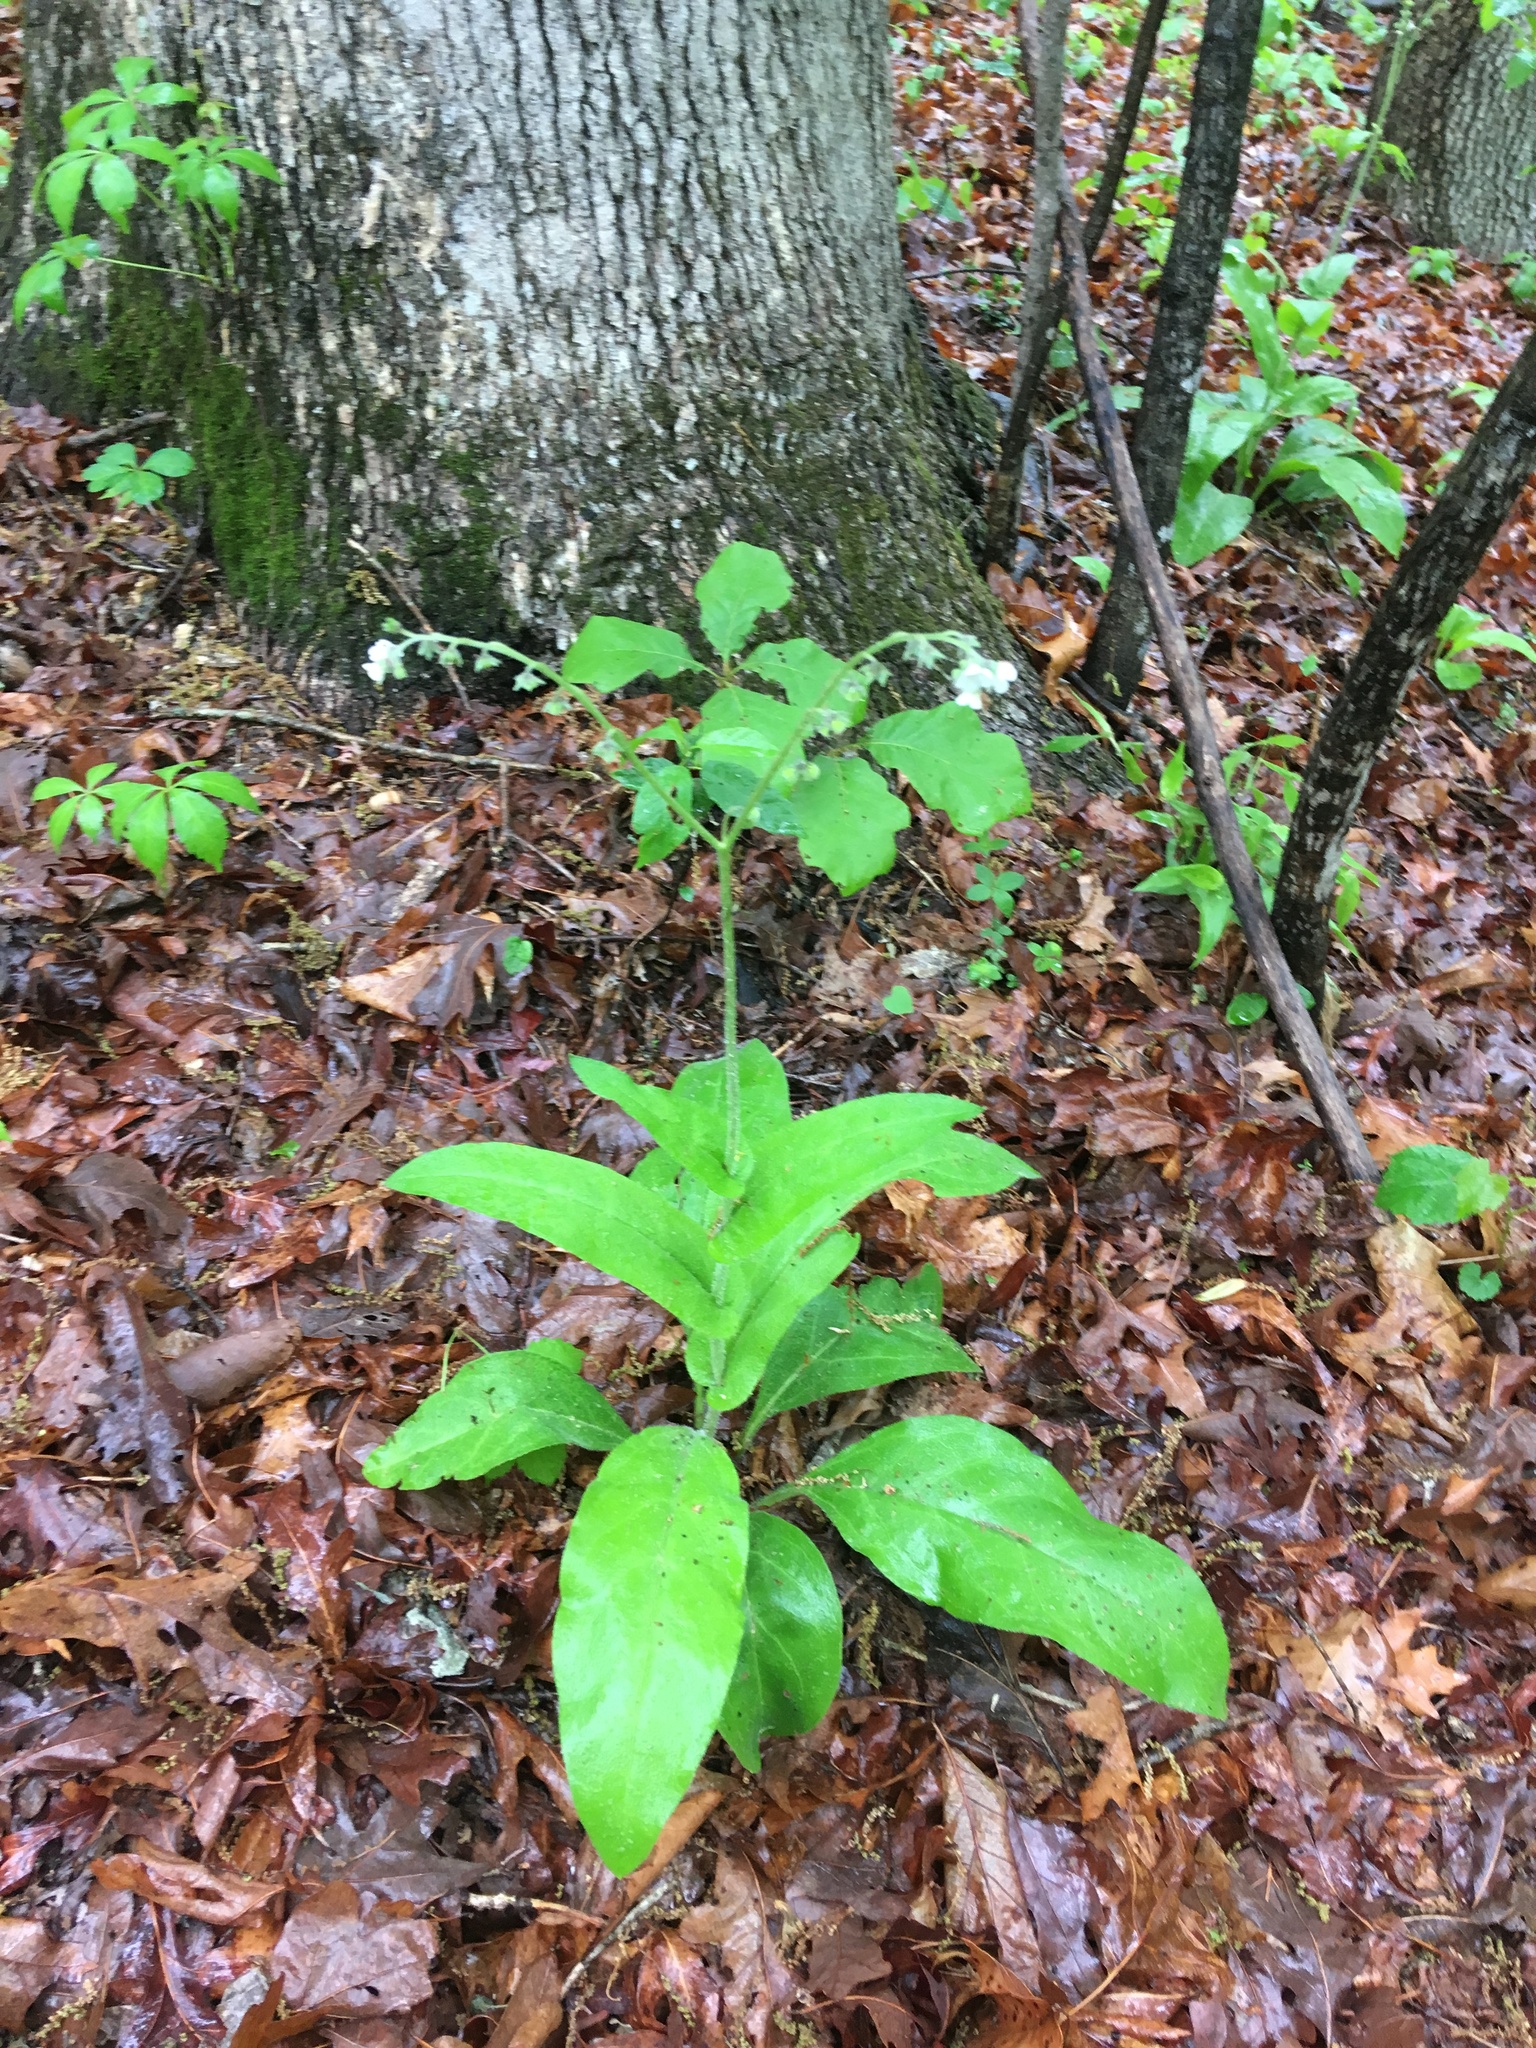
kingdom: Plantae
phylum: Tracheophyta
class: Magnoliopsida
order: Boraginales
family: Boraginaceae
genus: Andersonglossum
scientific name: Andersonglossum virginianum
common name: Wild comfrey
